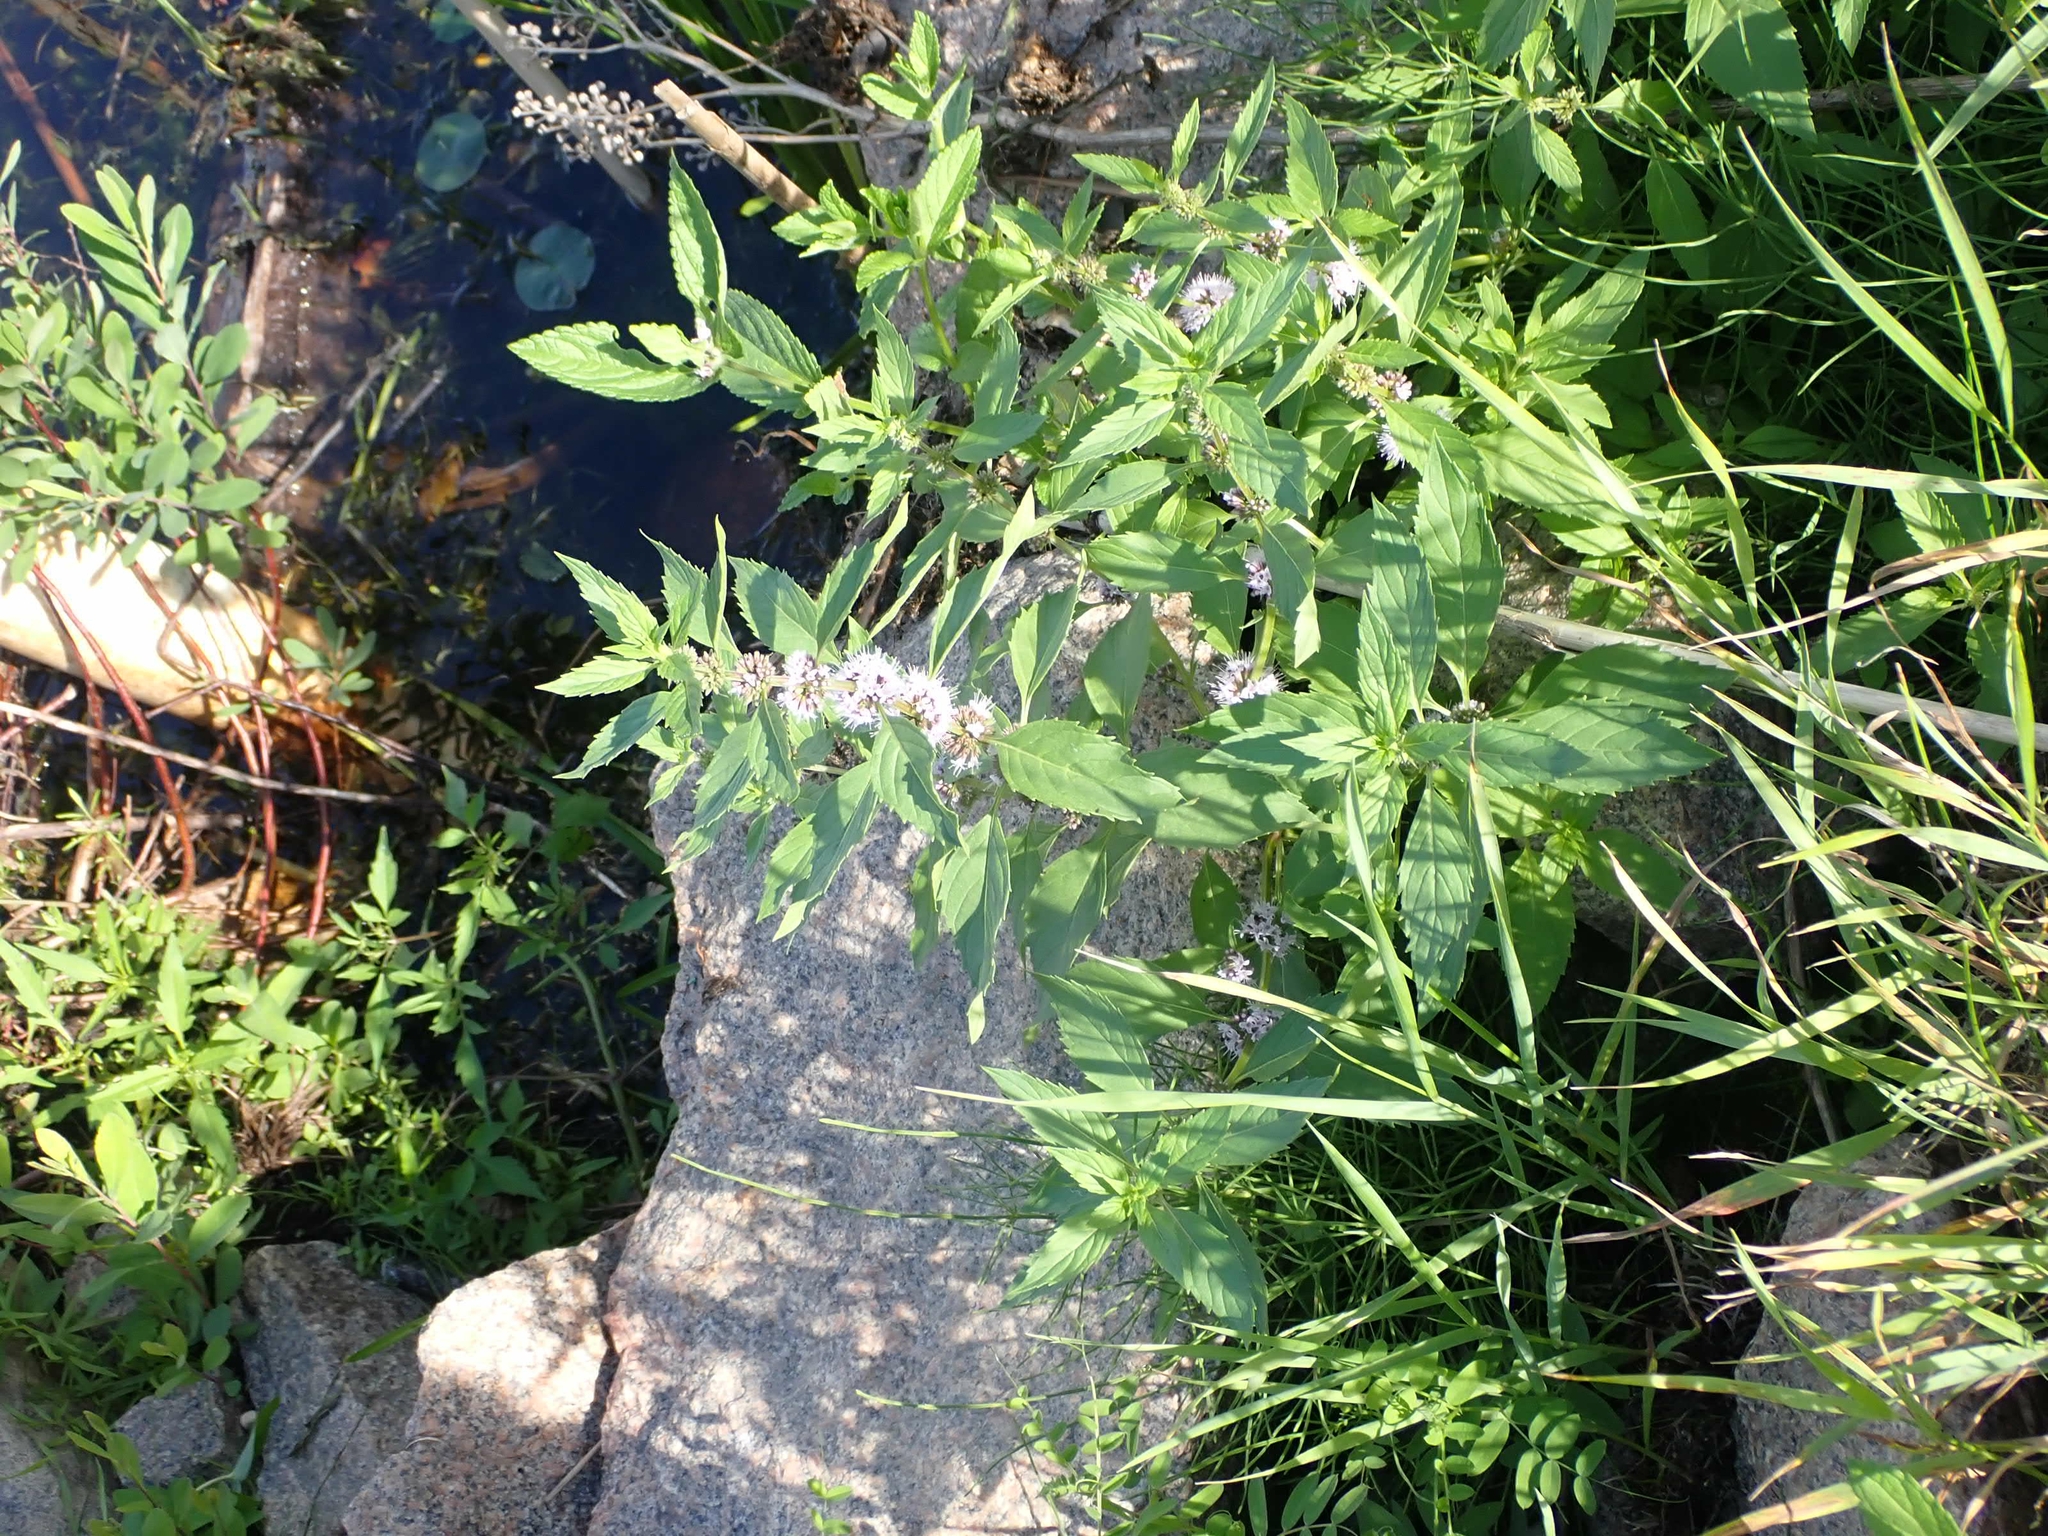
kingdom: Plantae
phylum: Tracheophyta
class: Magnoliopsida
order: Lamiales
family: Lamiaceae
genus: Mentha
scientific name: Mentha canadensis
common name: American corn mint
